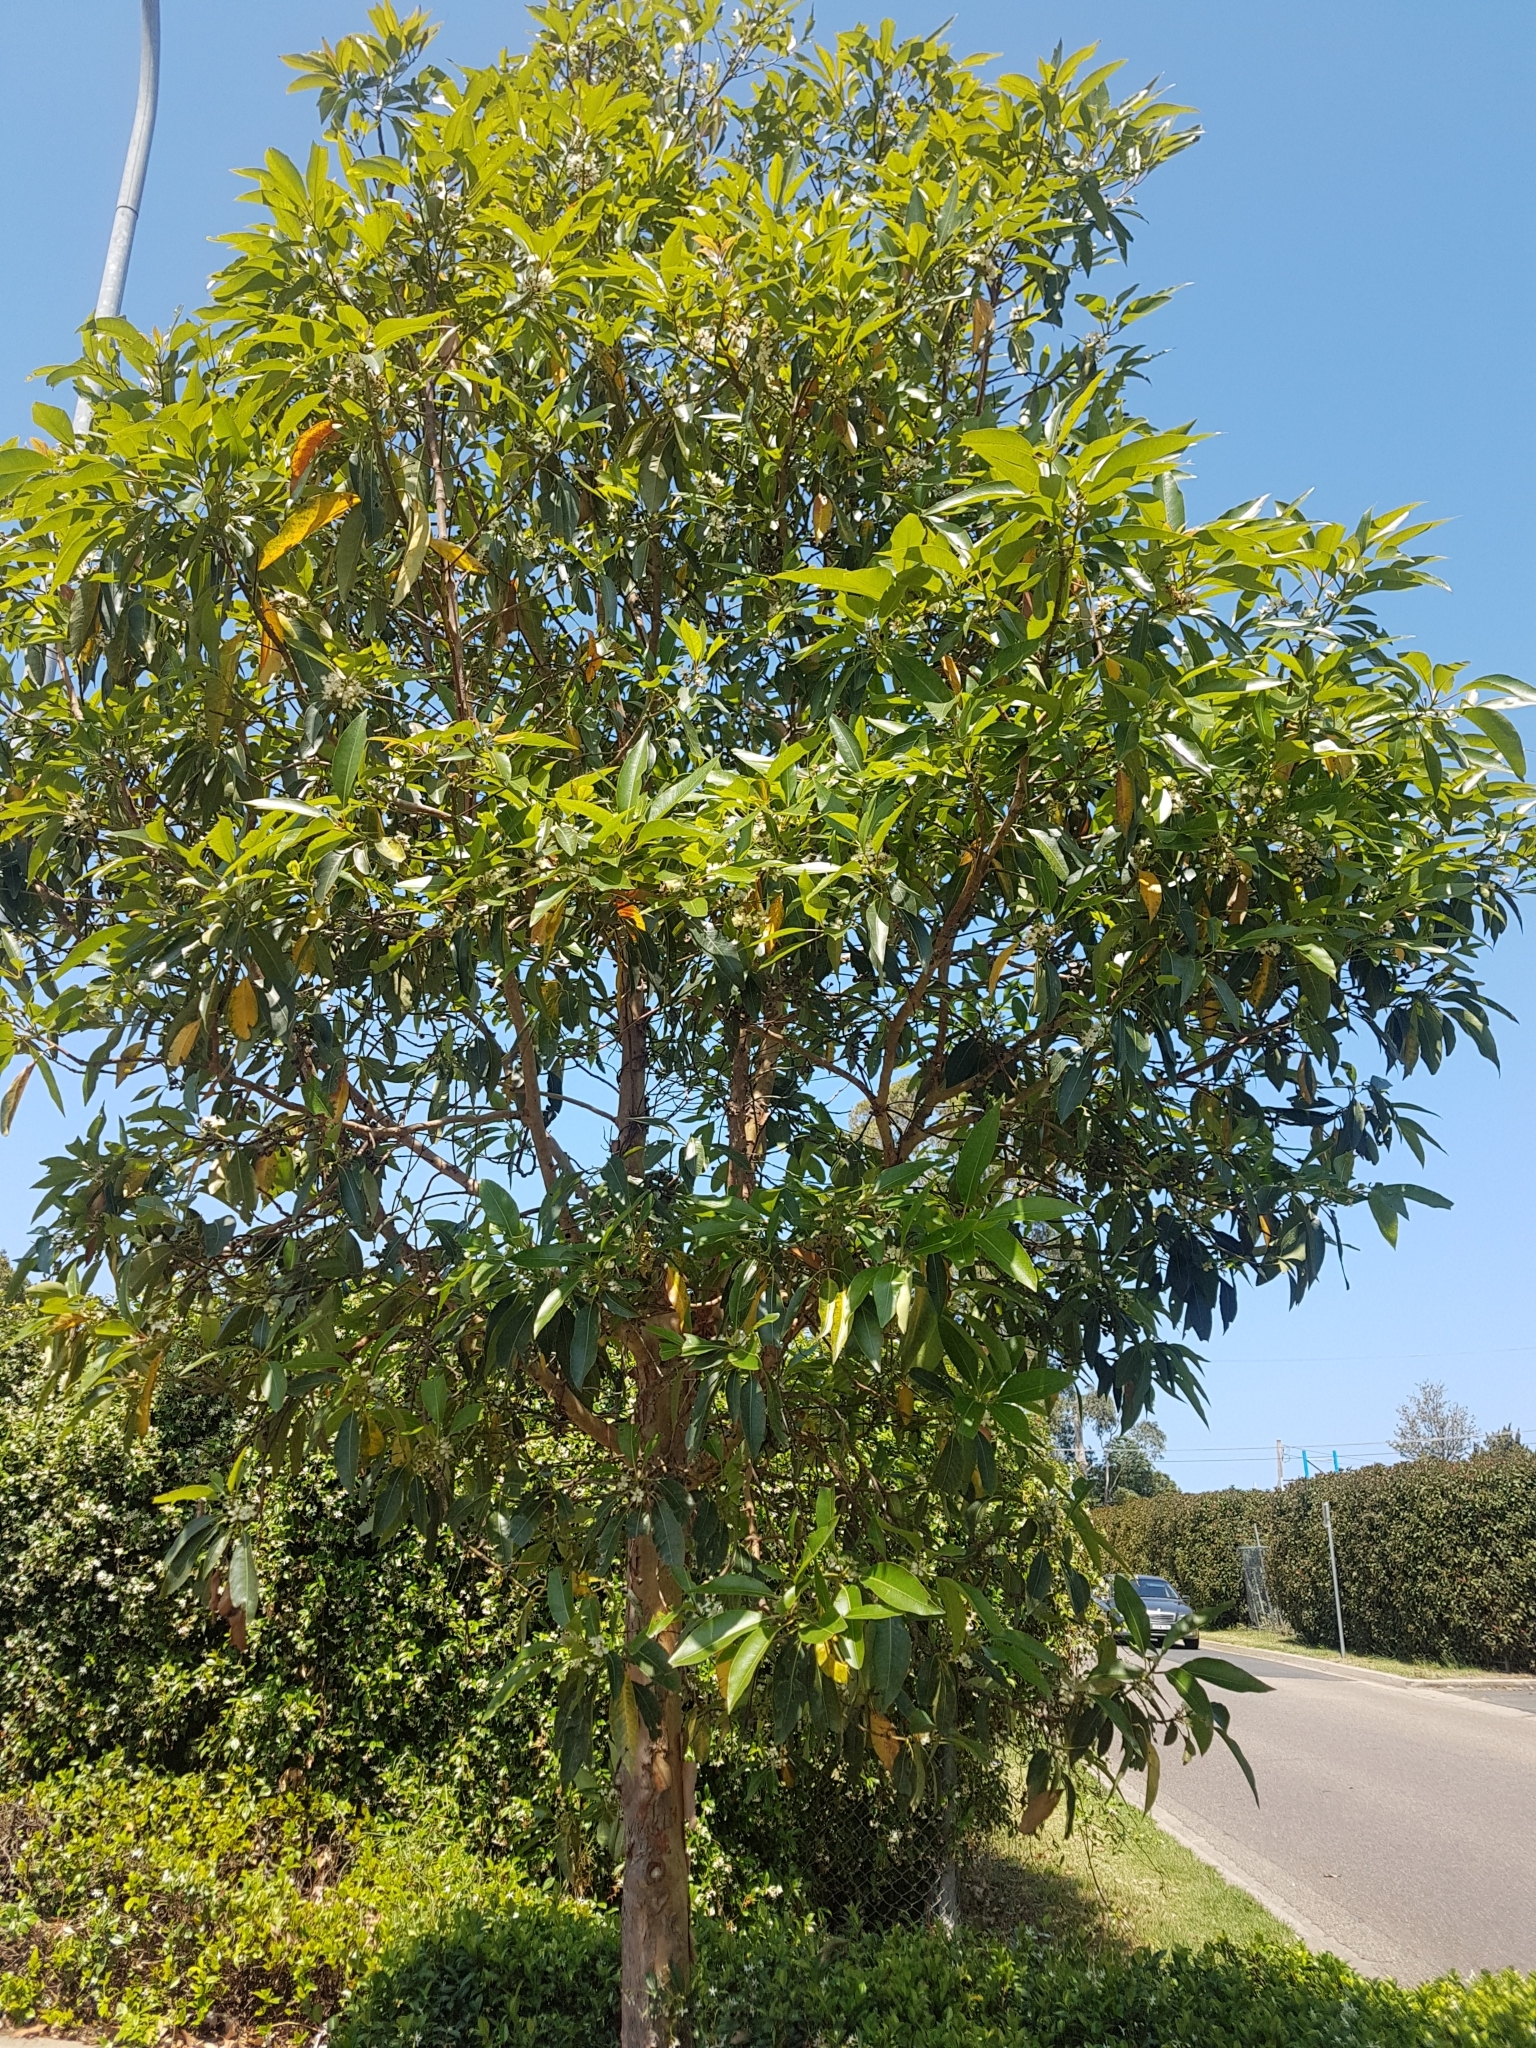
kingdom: Plantae
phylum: Tracheophyta
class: Magnoliopsida
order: Myrtales
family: Myrtaceae
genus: Lophostemon
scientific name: Lophostemon confertus
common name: Brisbane box
